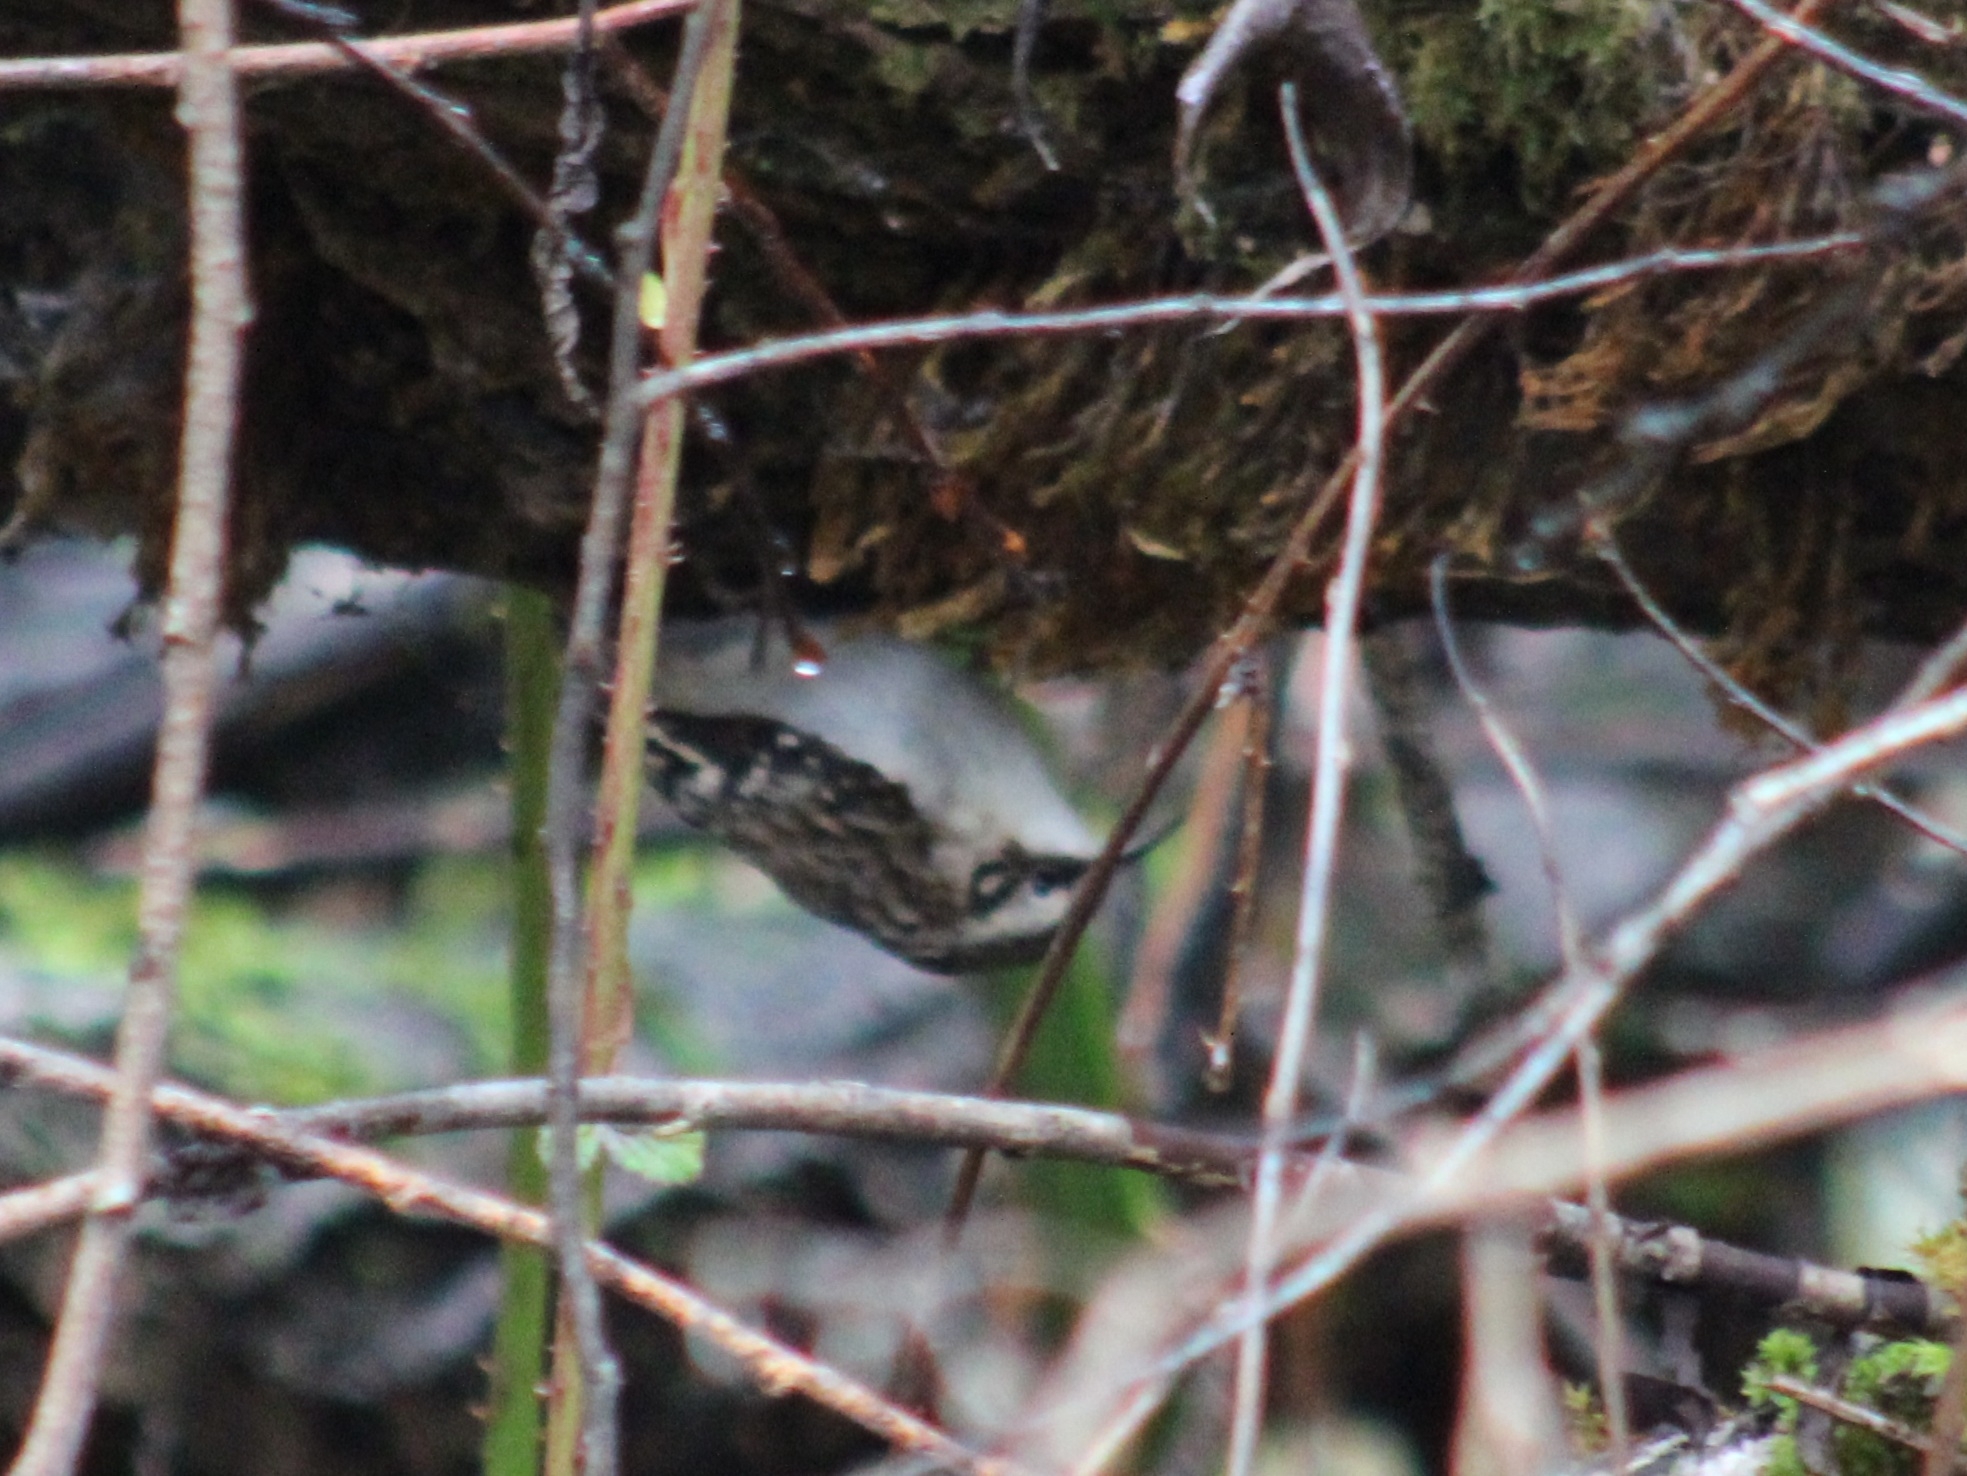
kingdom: Animalia
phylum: Chordata
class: Aves
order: Passeriformes
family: Certhiidae
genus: Certhia
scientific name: Certhia americana
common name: Brown creeper
